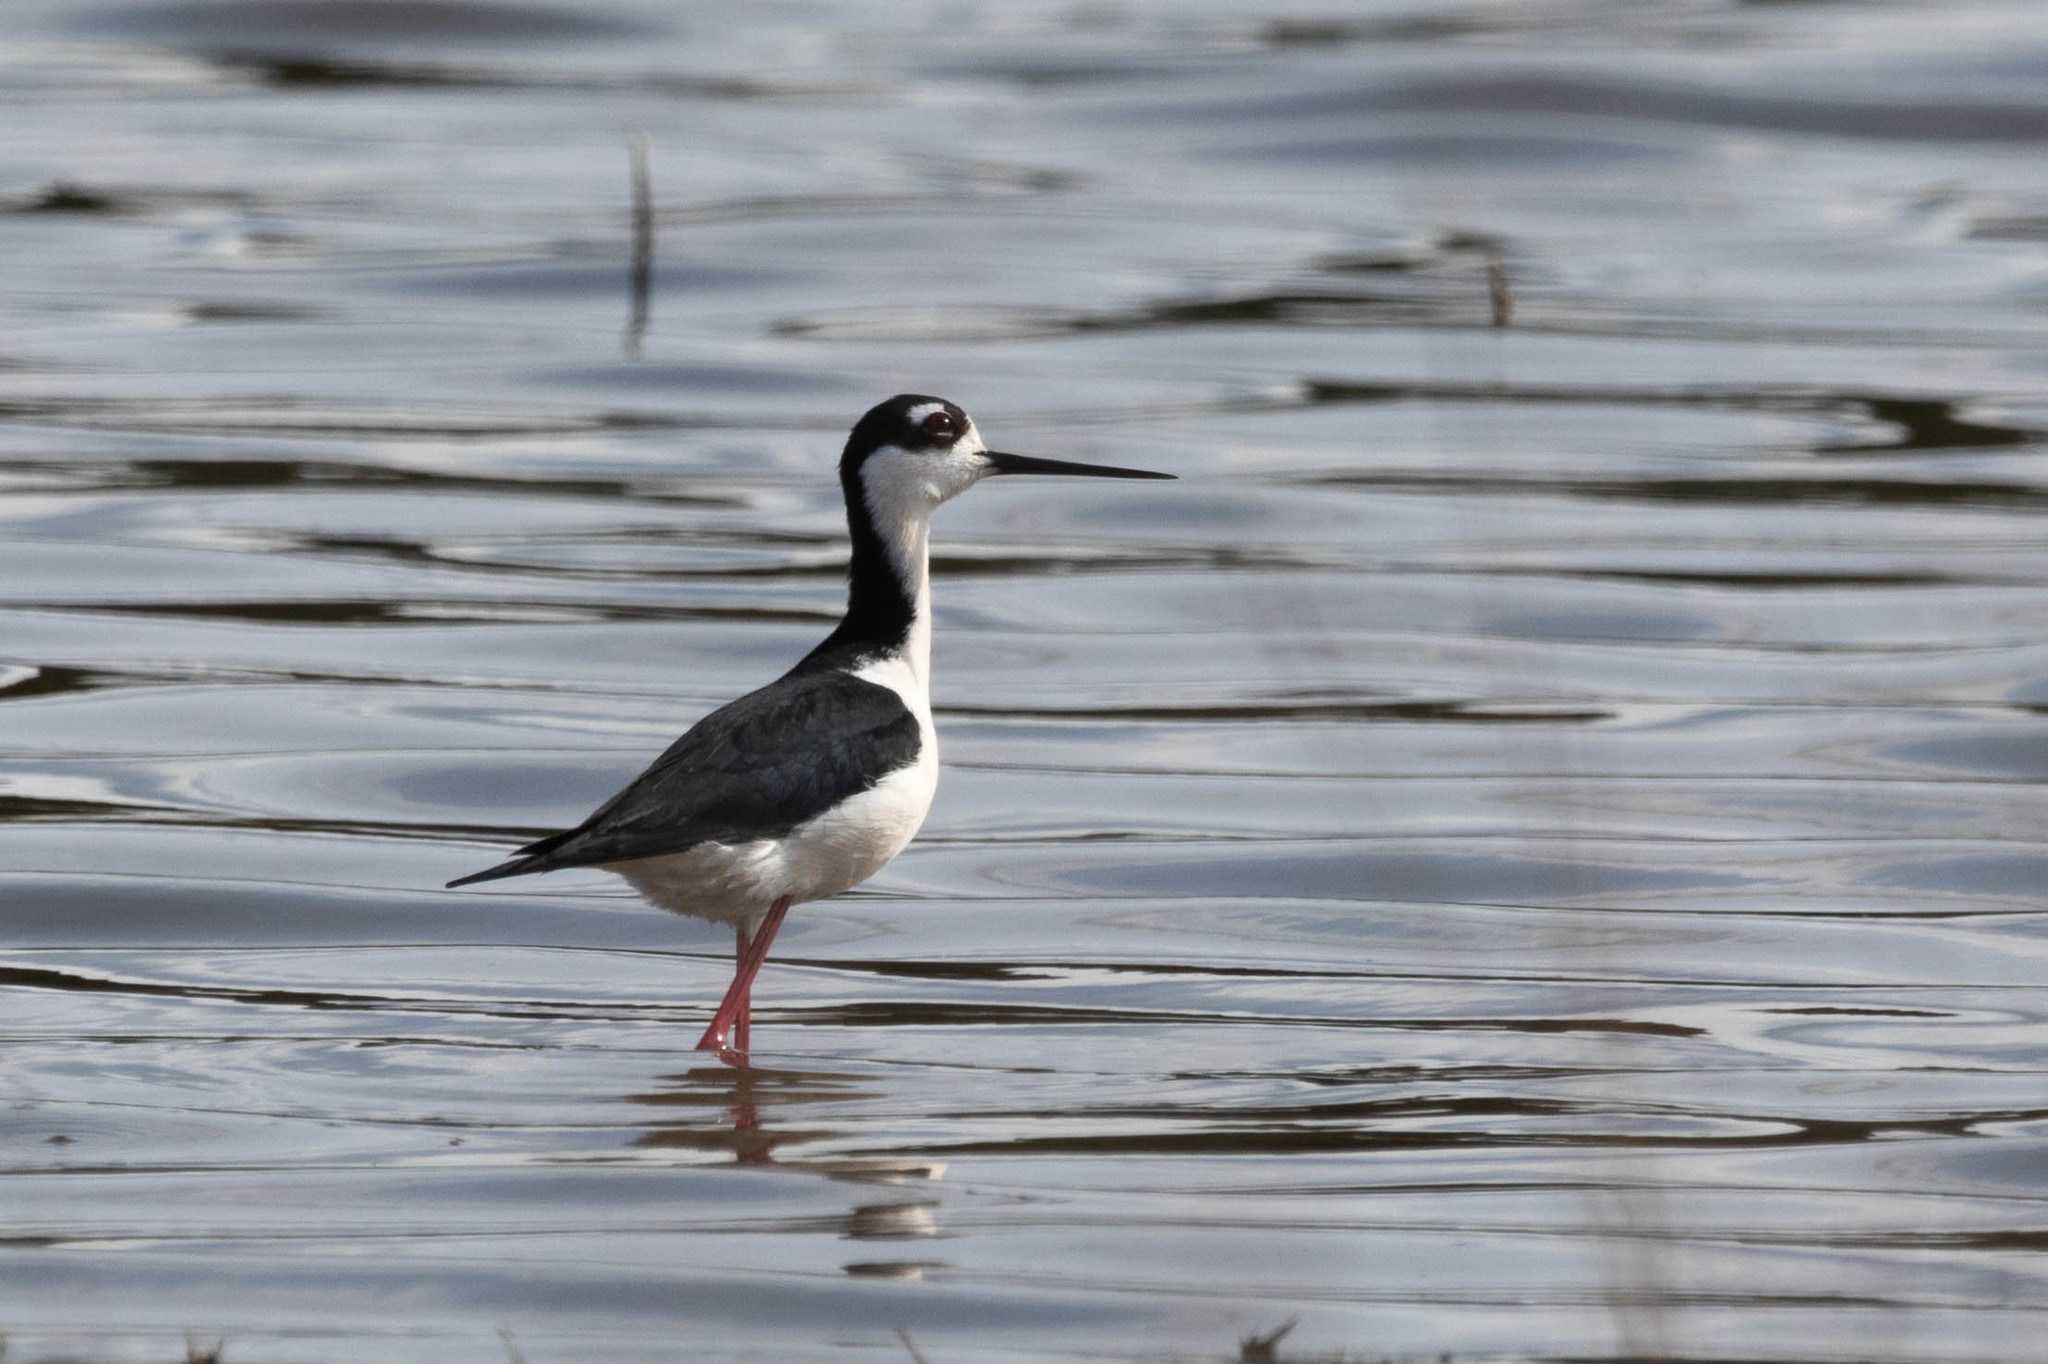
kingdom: Animalia
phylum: Chordata
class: Aves
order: Charadriiformes
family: Recurvirostridae
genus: Himantopus
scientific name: Himantopus mexicanus
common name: Black-necked stilt
